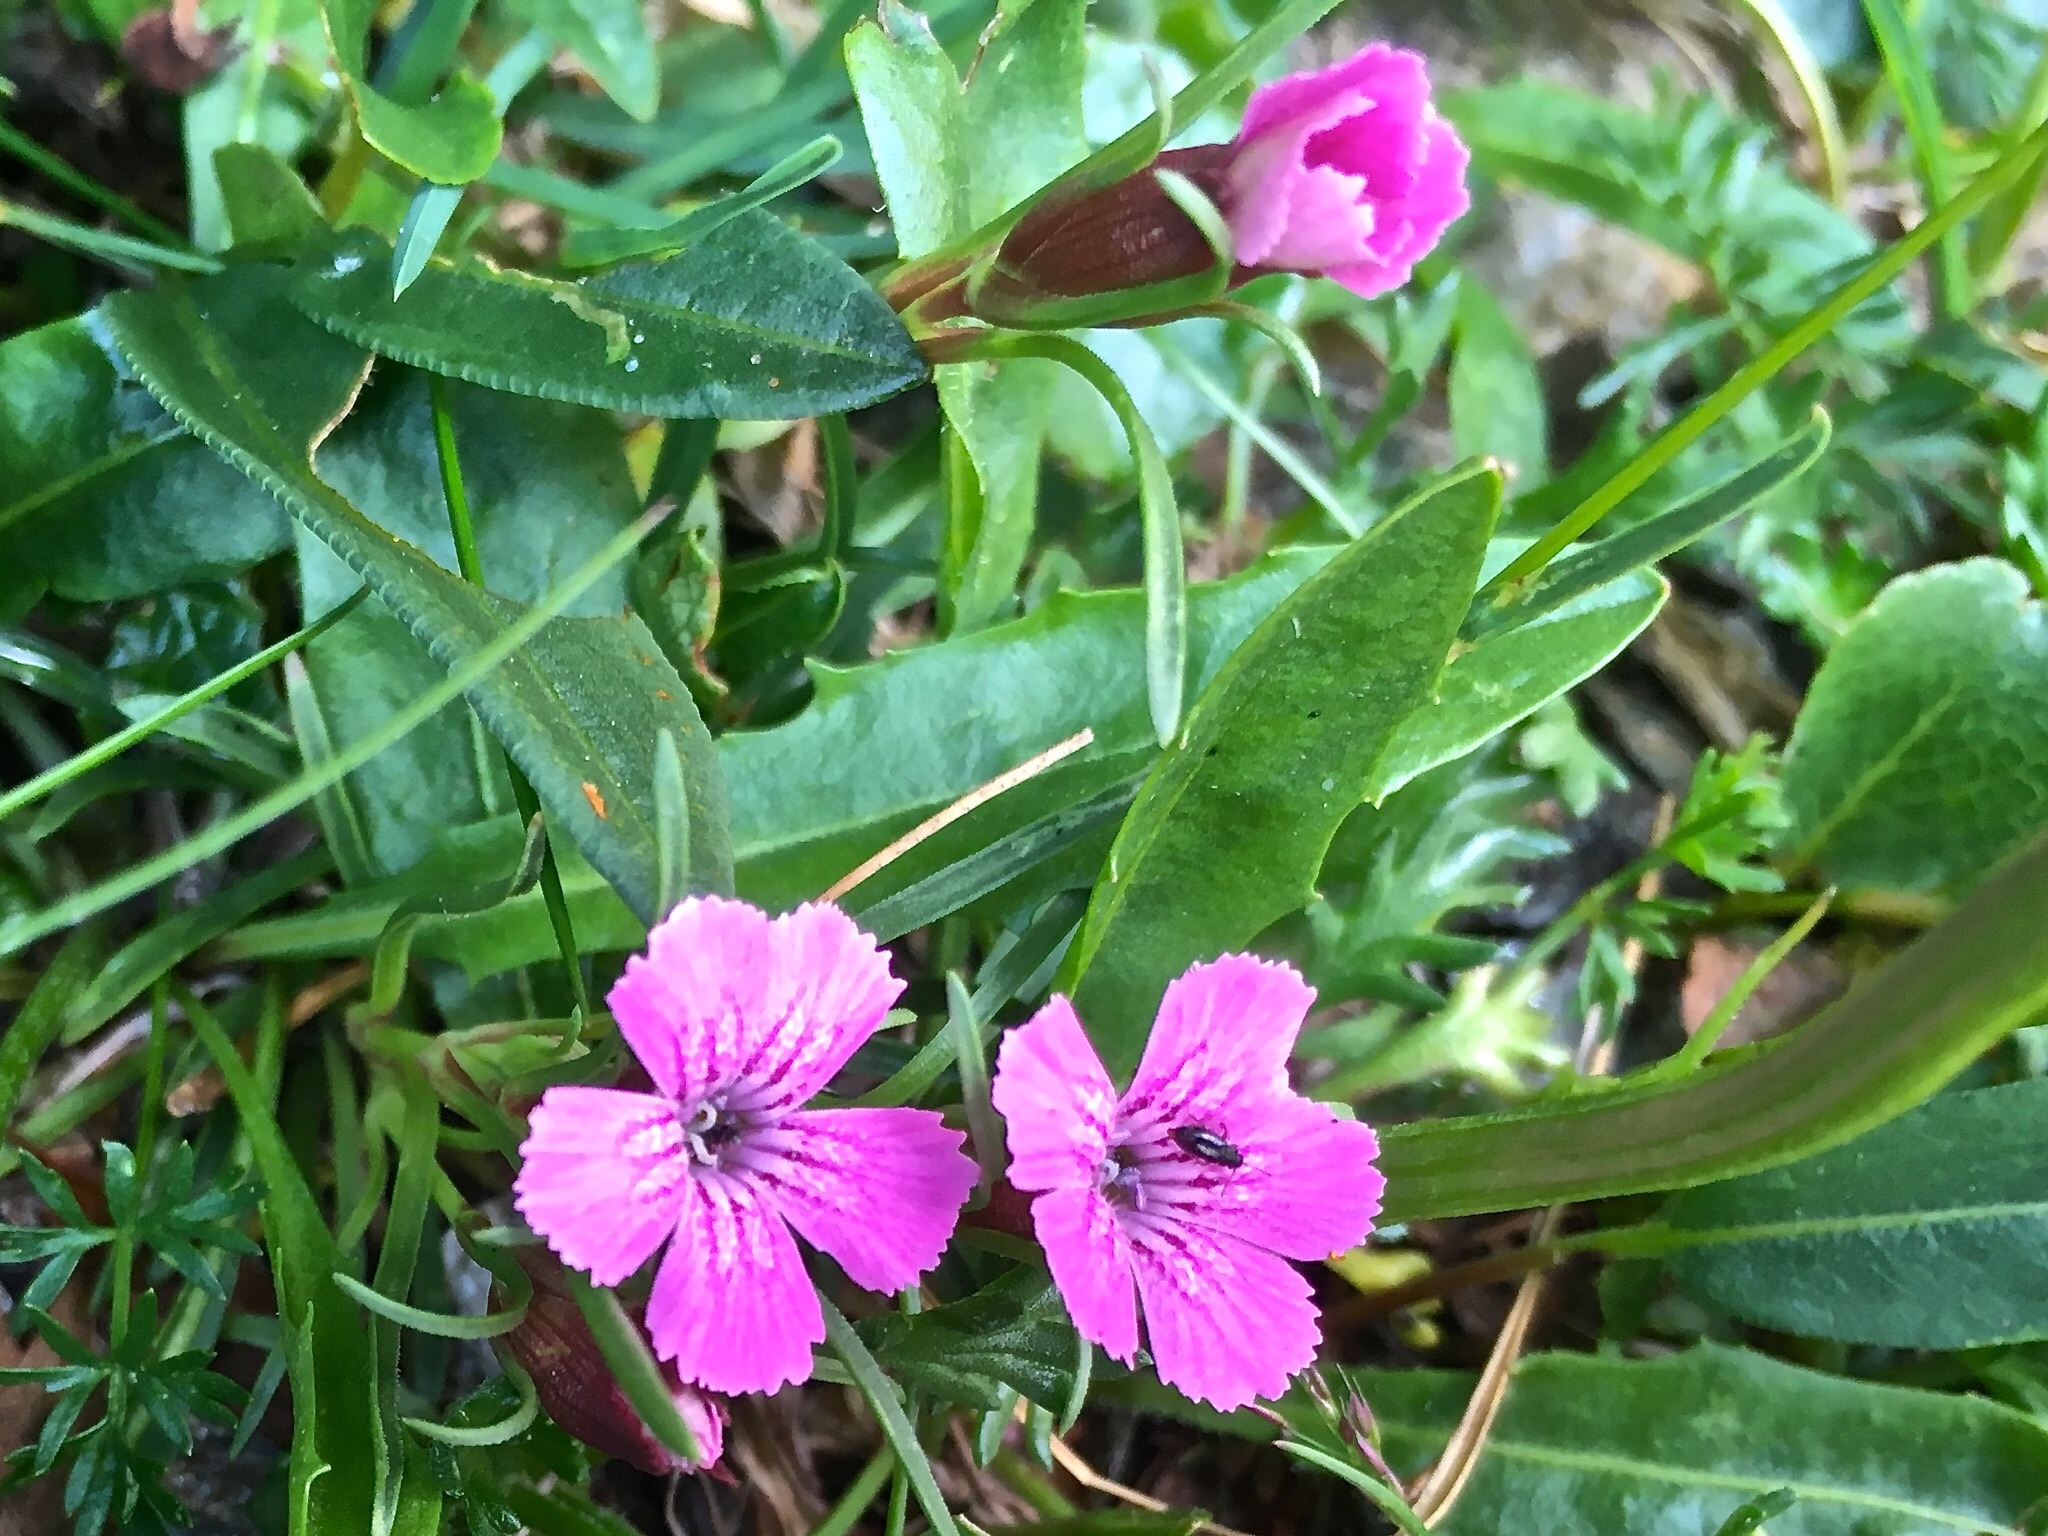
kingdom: Plantae
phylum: Tracheophyta
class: Magnoliopsida
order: Caryophyllales
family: Caryophyllaceae
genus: Dianthus
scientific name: Dianthus glacialis
